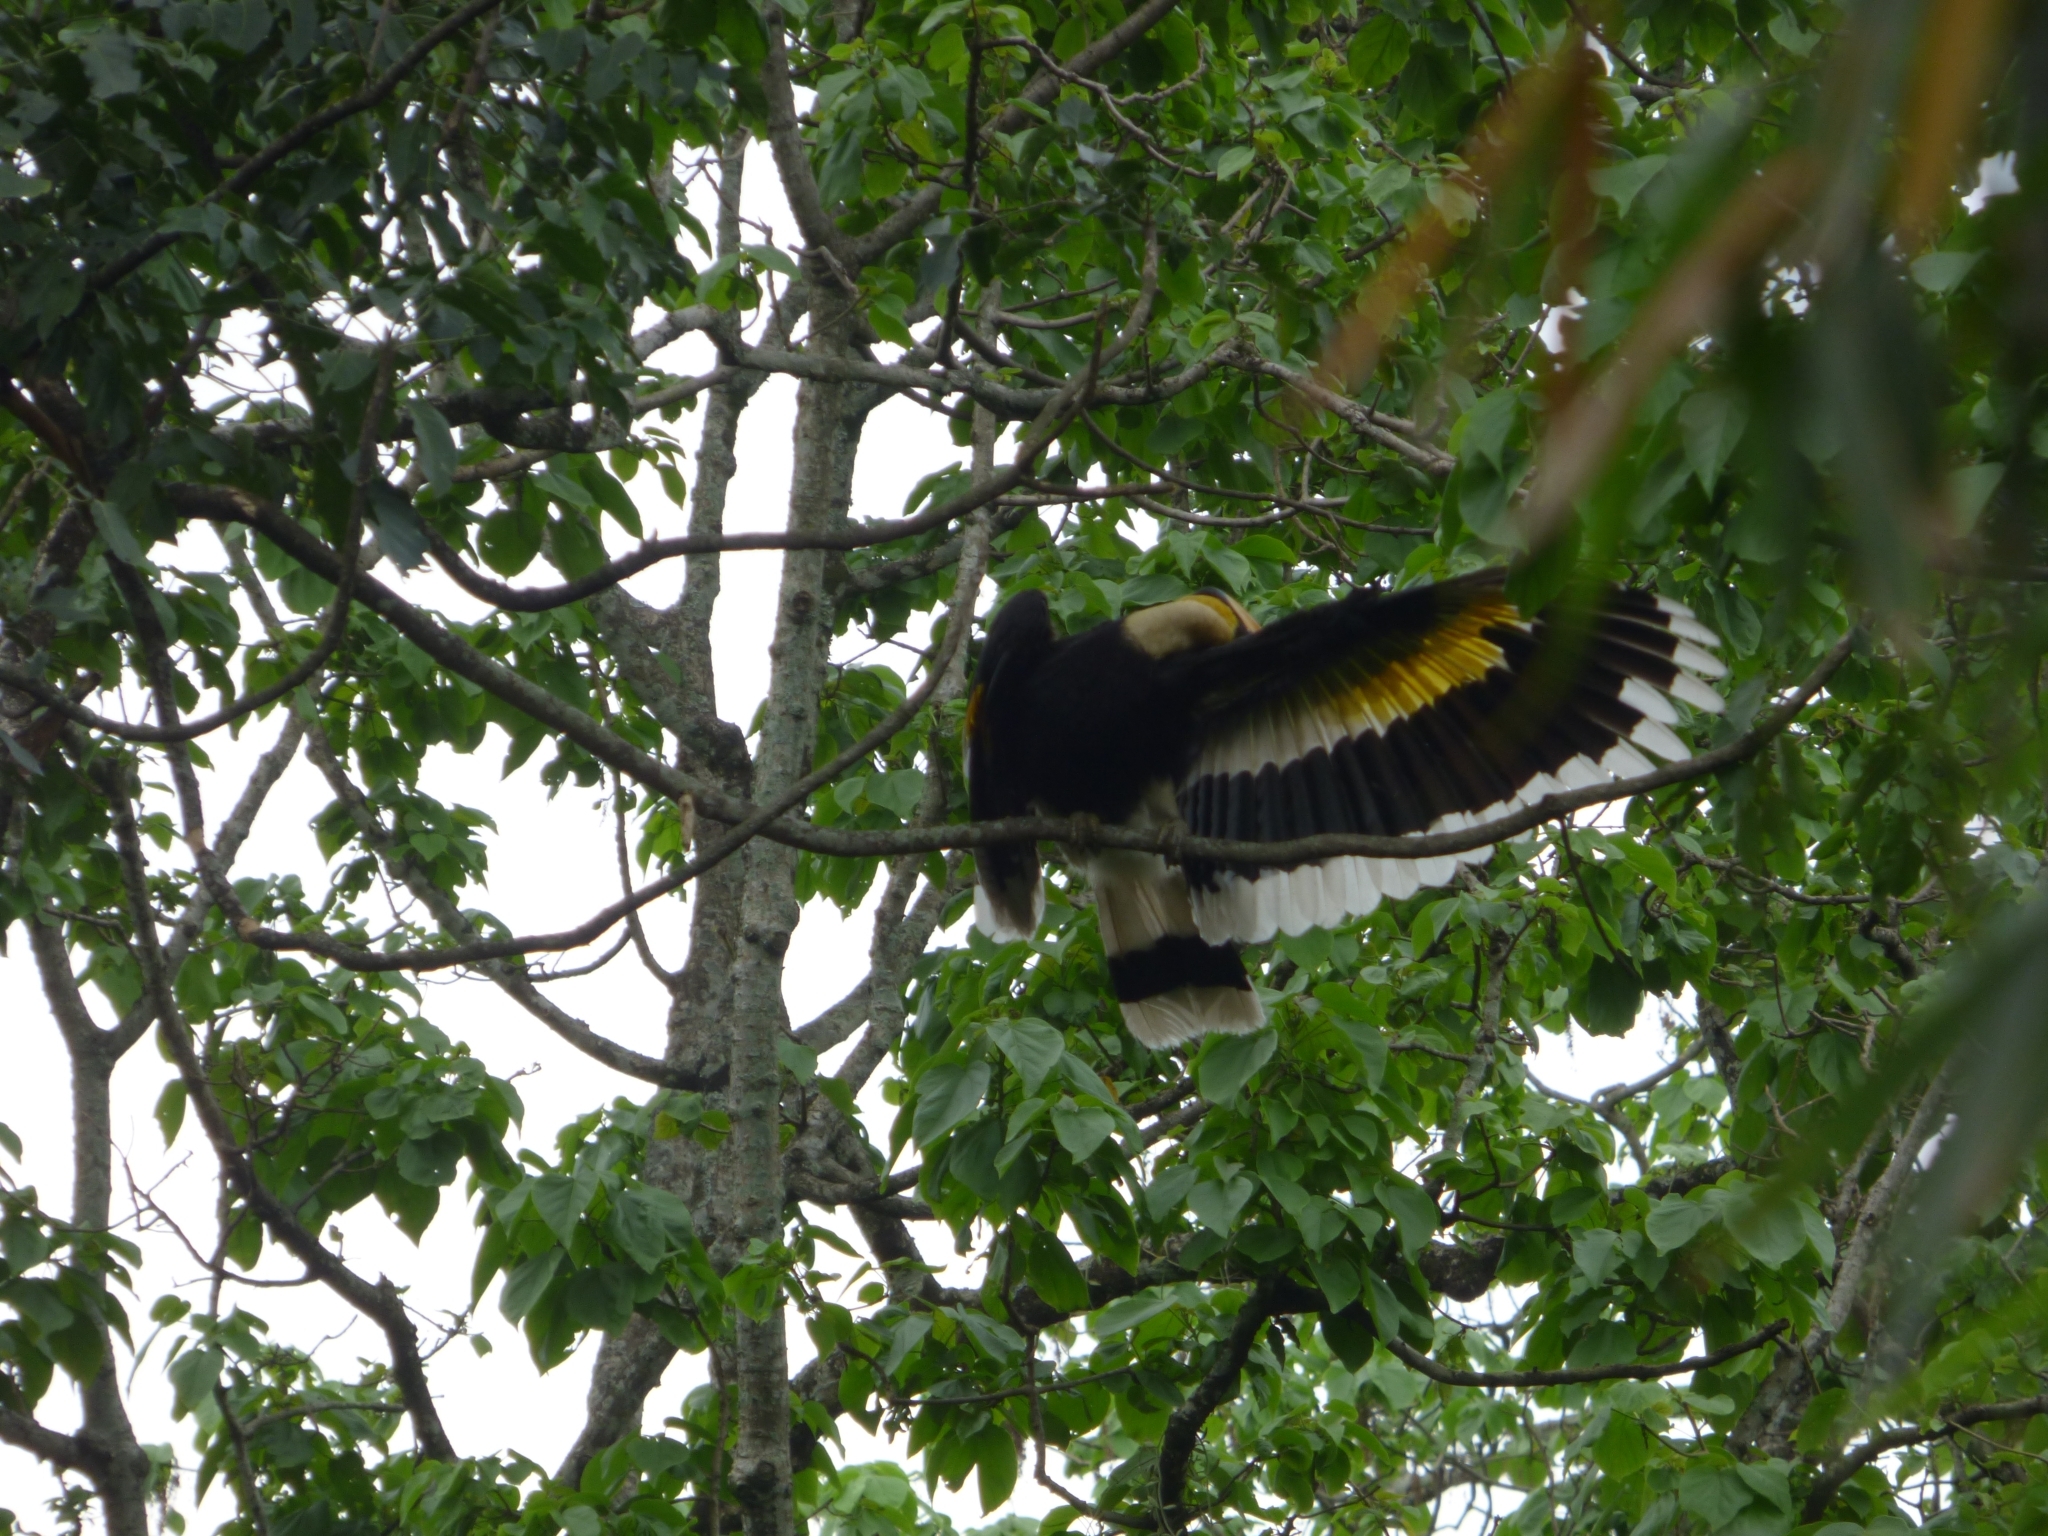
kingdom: Animalia
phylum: Chordata
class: Aves
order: Bucerotiformes
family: Bucerotidae
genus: Buceros
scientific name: Buceros bicornis
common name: Great hornbill
